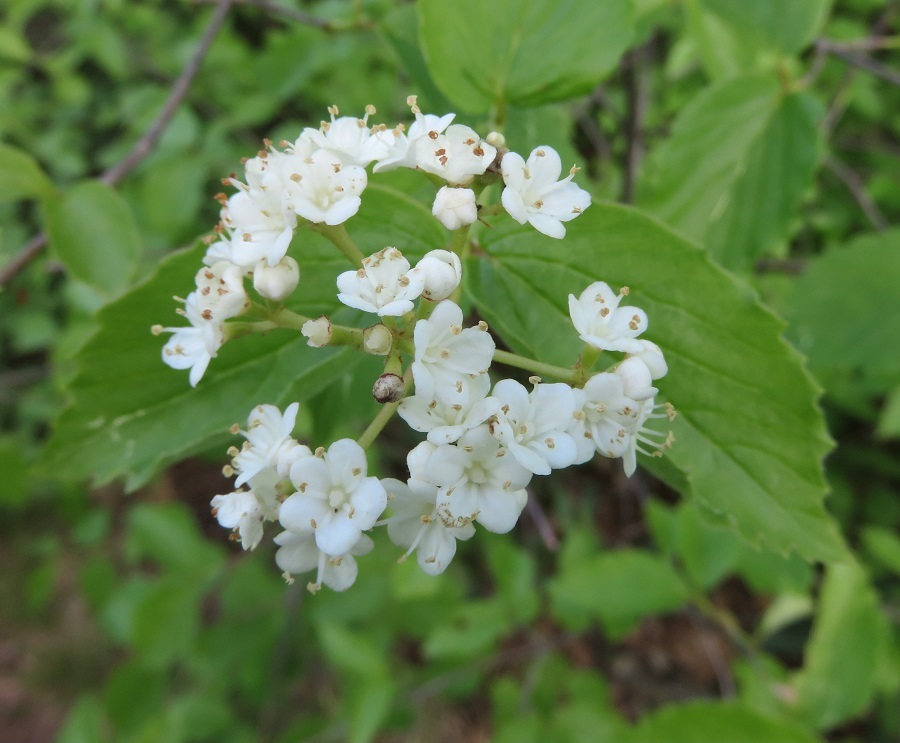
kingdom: Plantae
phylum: Tracheophyta
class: Magnoliopsida
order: Dipsacales
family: Viburnaceae
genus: Viburnum
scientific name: Viburnum rafinesqueanum
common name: Downy arrow-wood
